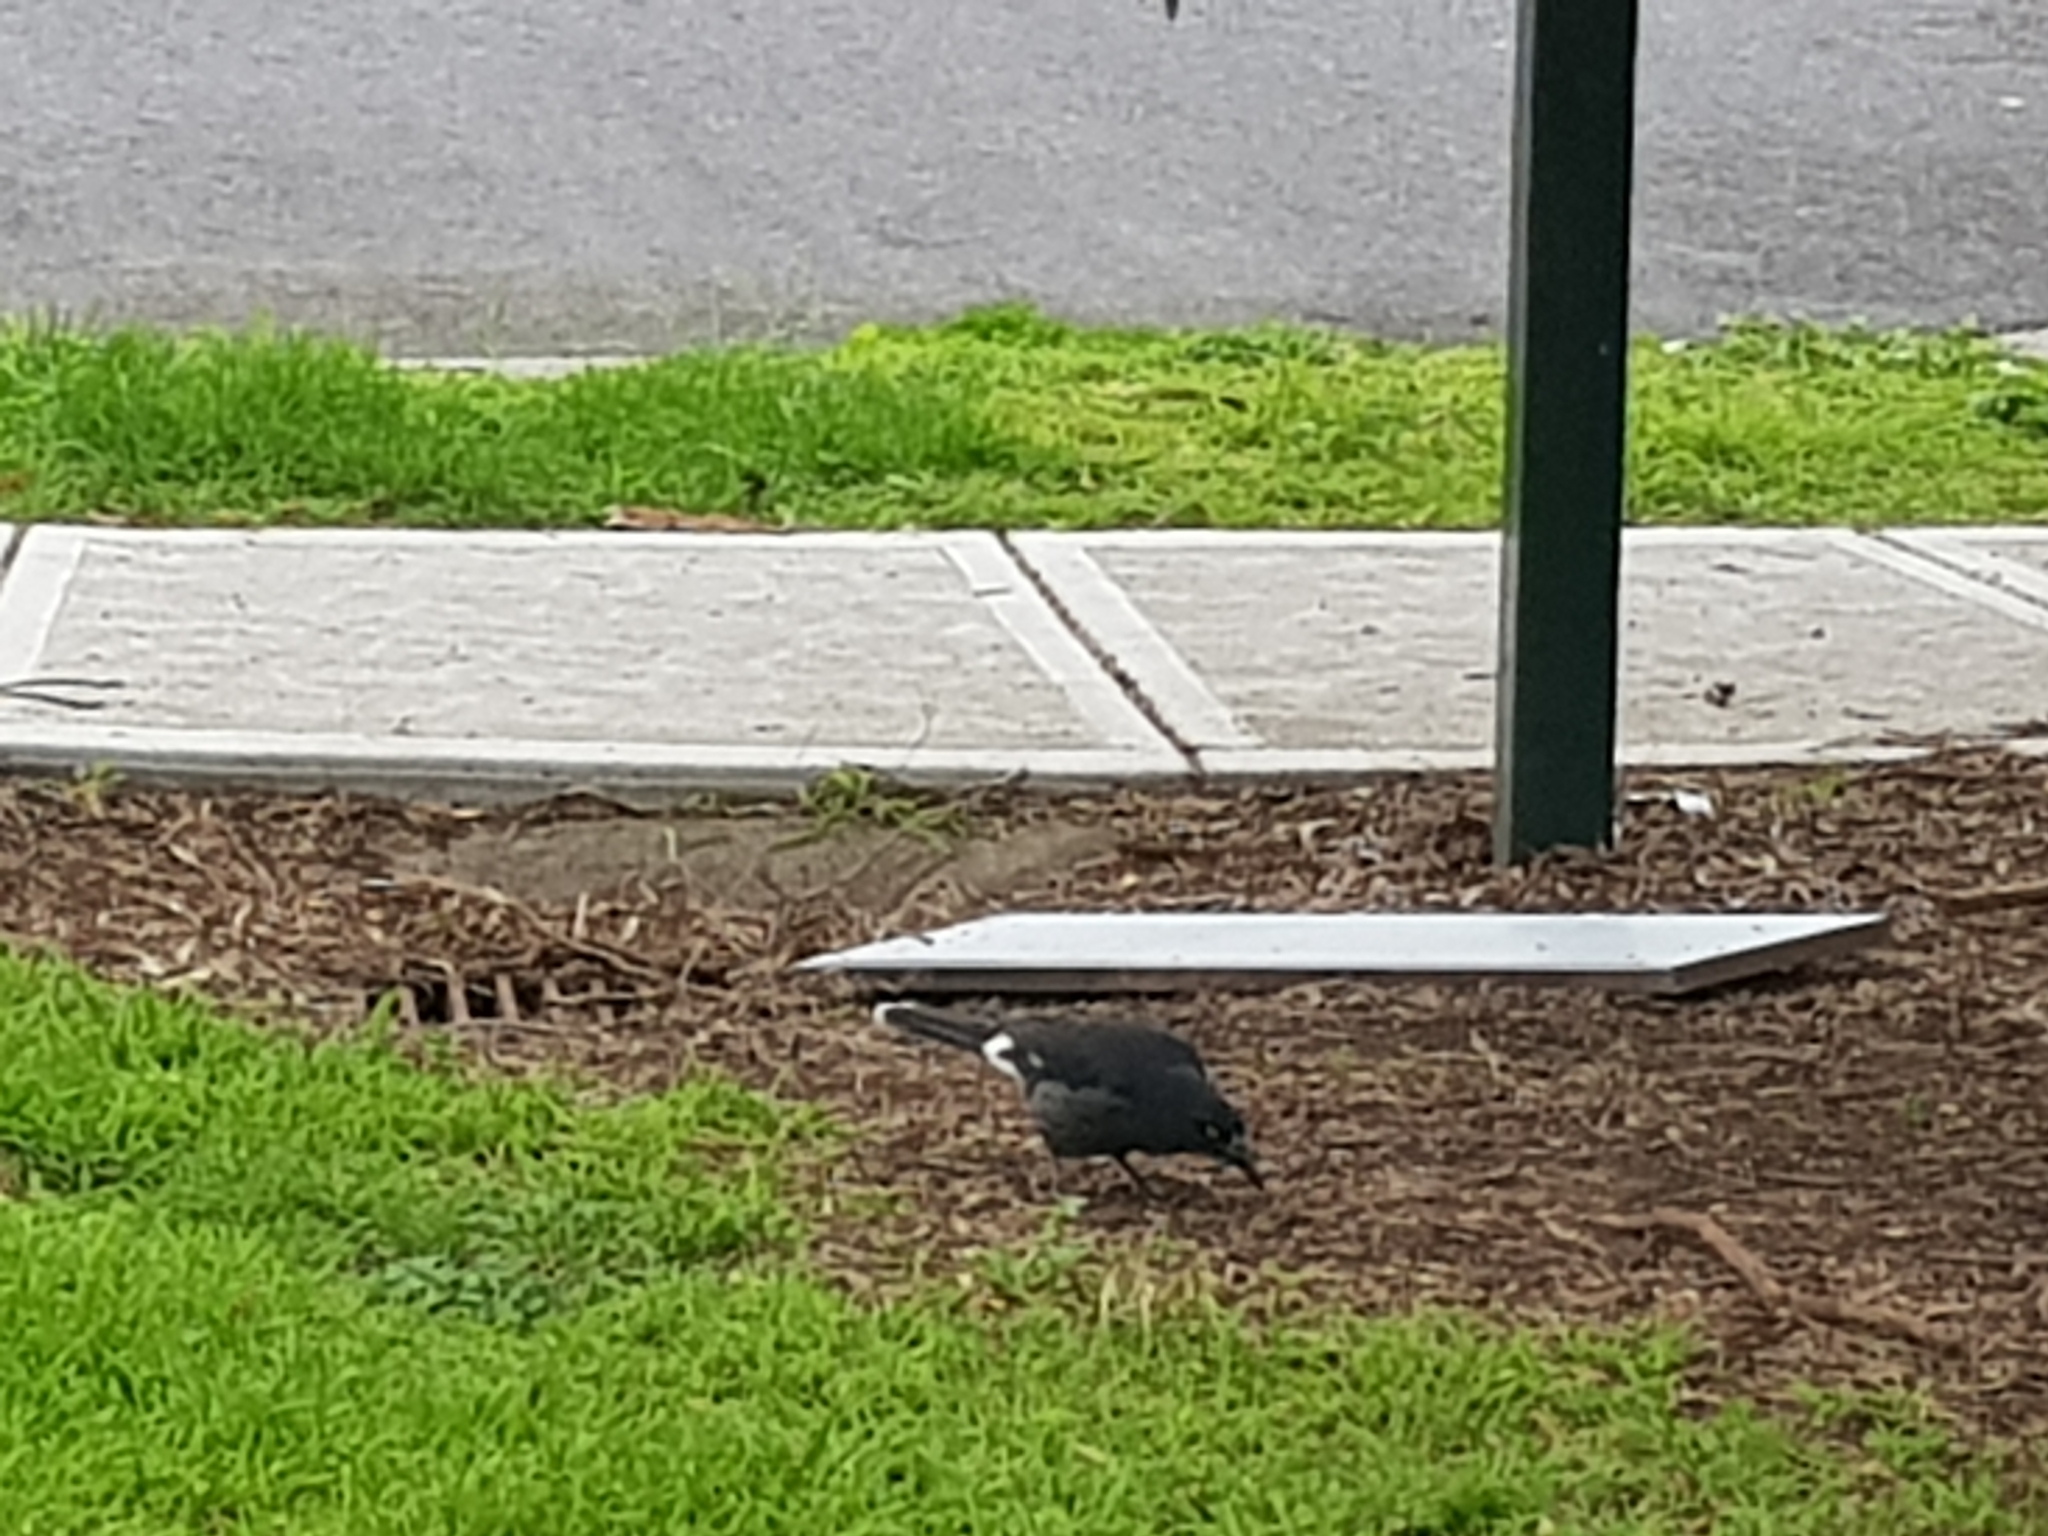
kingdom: Animalia
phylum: Chordata
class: Aves
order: Passeriformes
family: Cracticidae
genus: Strepera
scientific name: Strepera graculina
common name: Pied currawong
